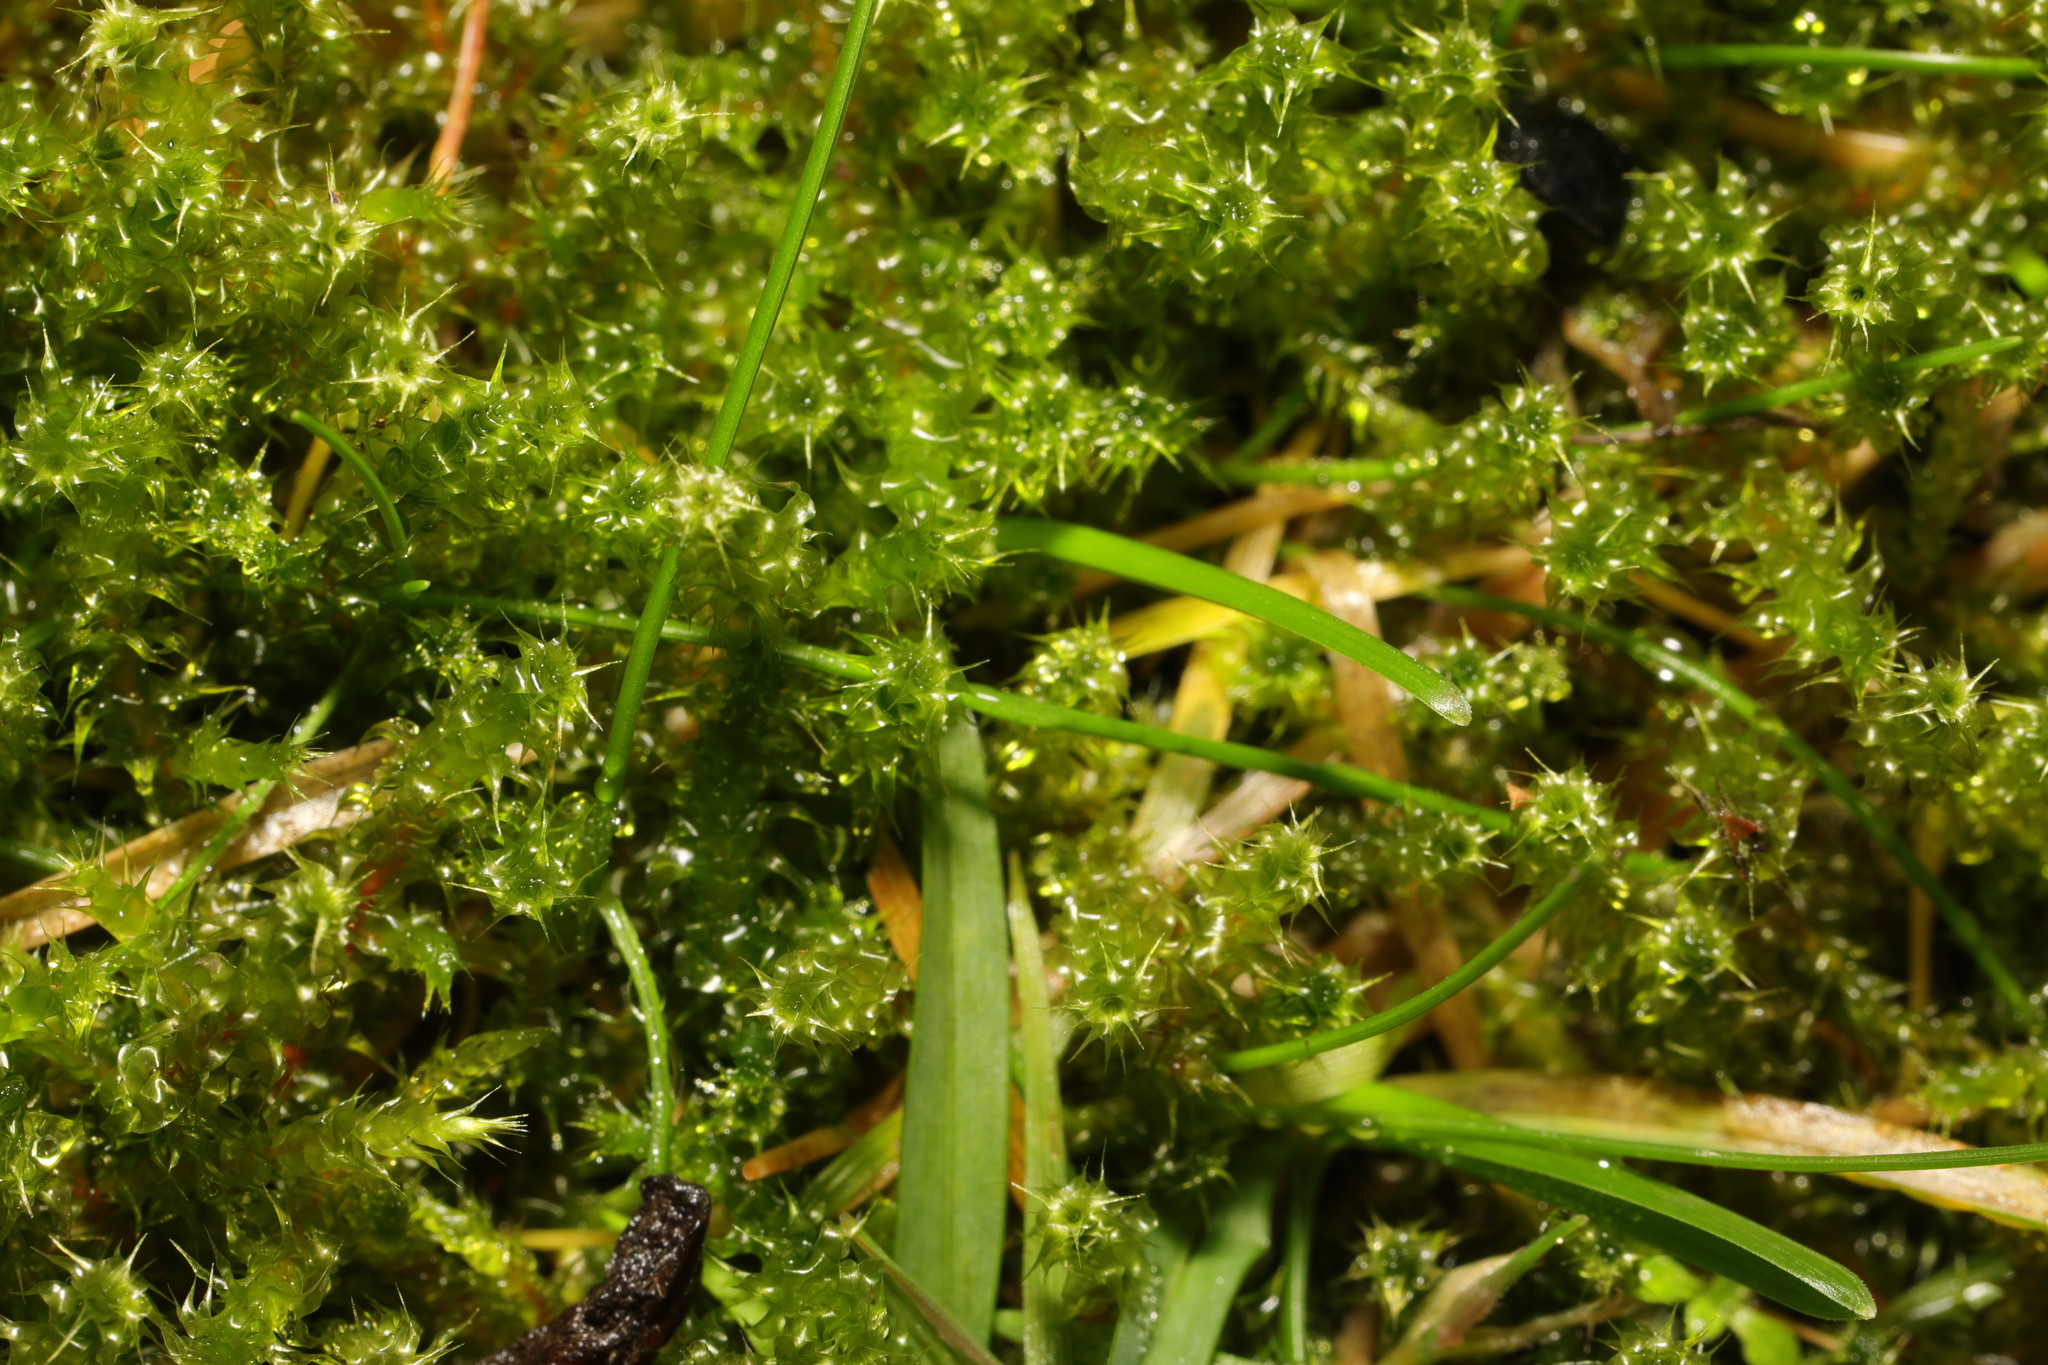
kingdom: Plantae
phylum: Bryophyta
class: Bryopsida
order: Hypnales
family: Hylocomiaceae
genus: Rhytidiadelphus
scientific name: Rhytidiadelphus squarrosus
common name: Springy turf-moss
